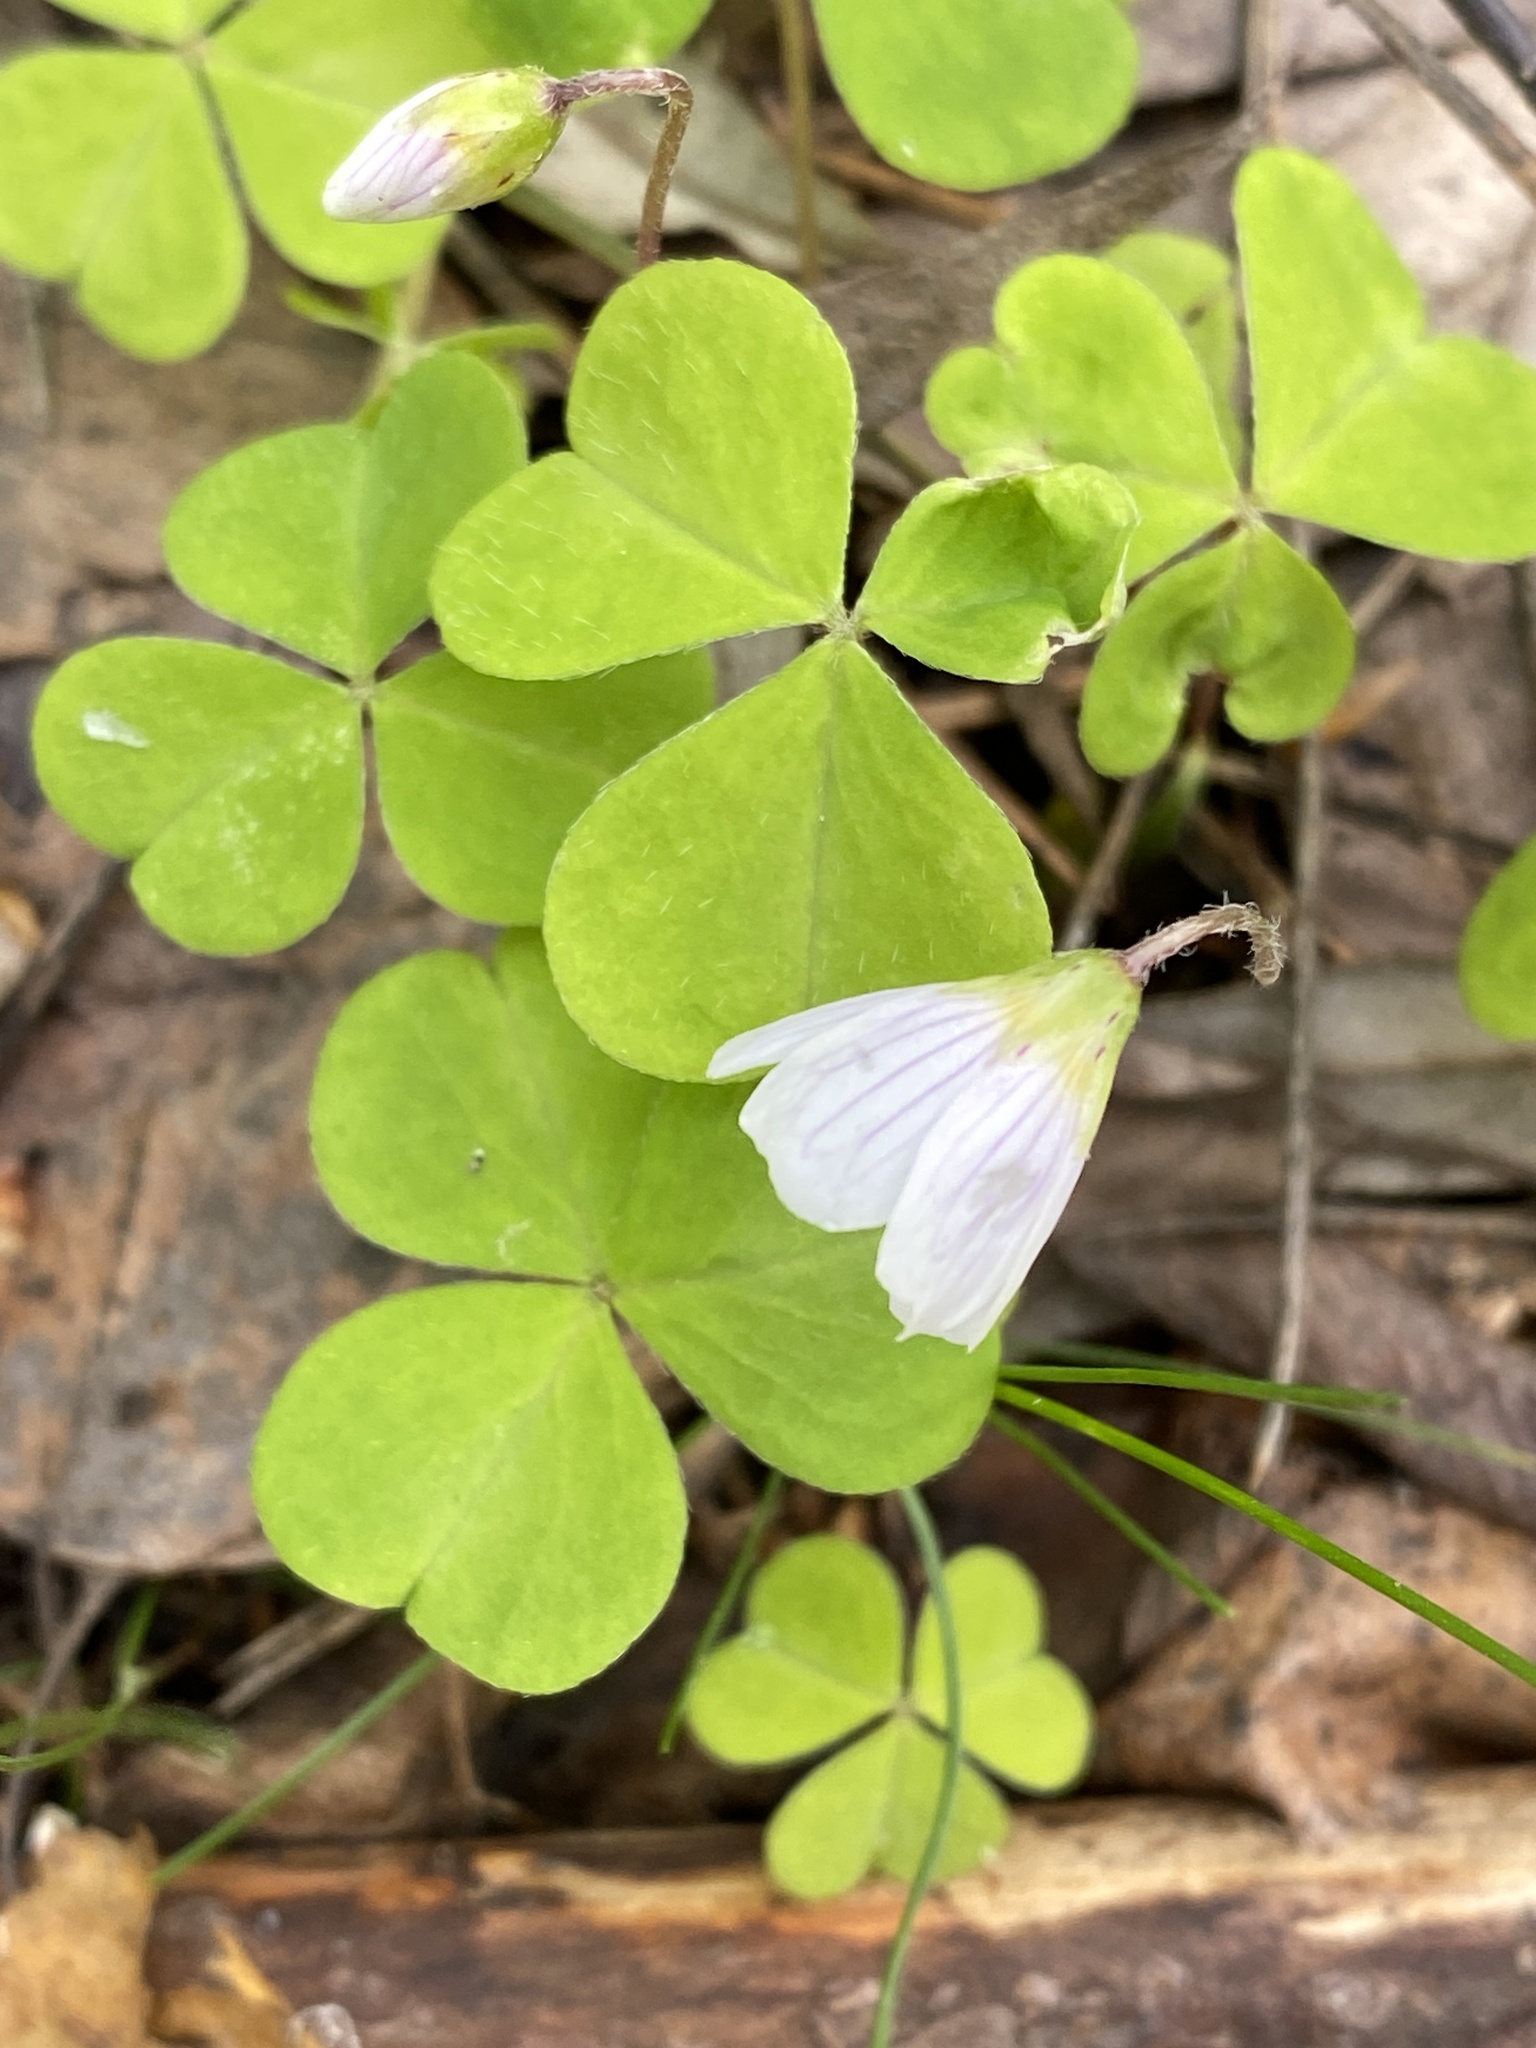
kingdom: Plantae
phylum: Tracheophyta
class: Magnoliopsida
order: Oxalidales
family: Oxalidaceae
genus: Oxalis
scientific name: Oxalis acetosella
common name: Wood-sorrel
